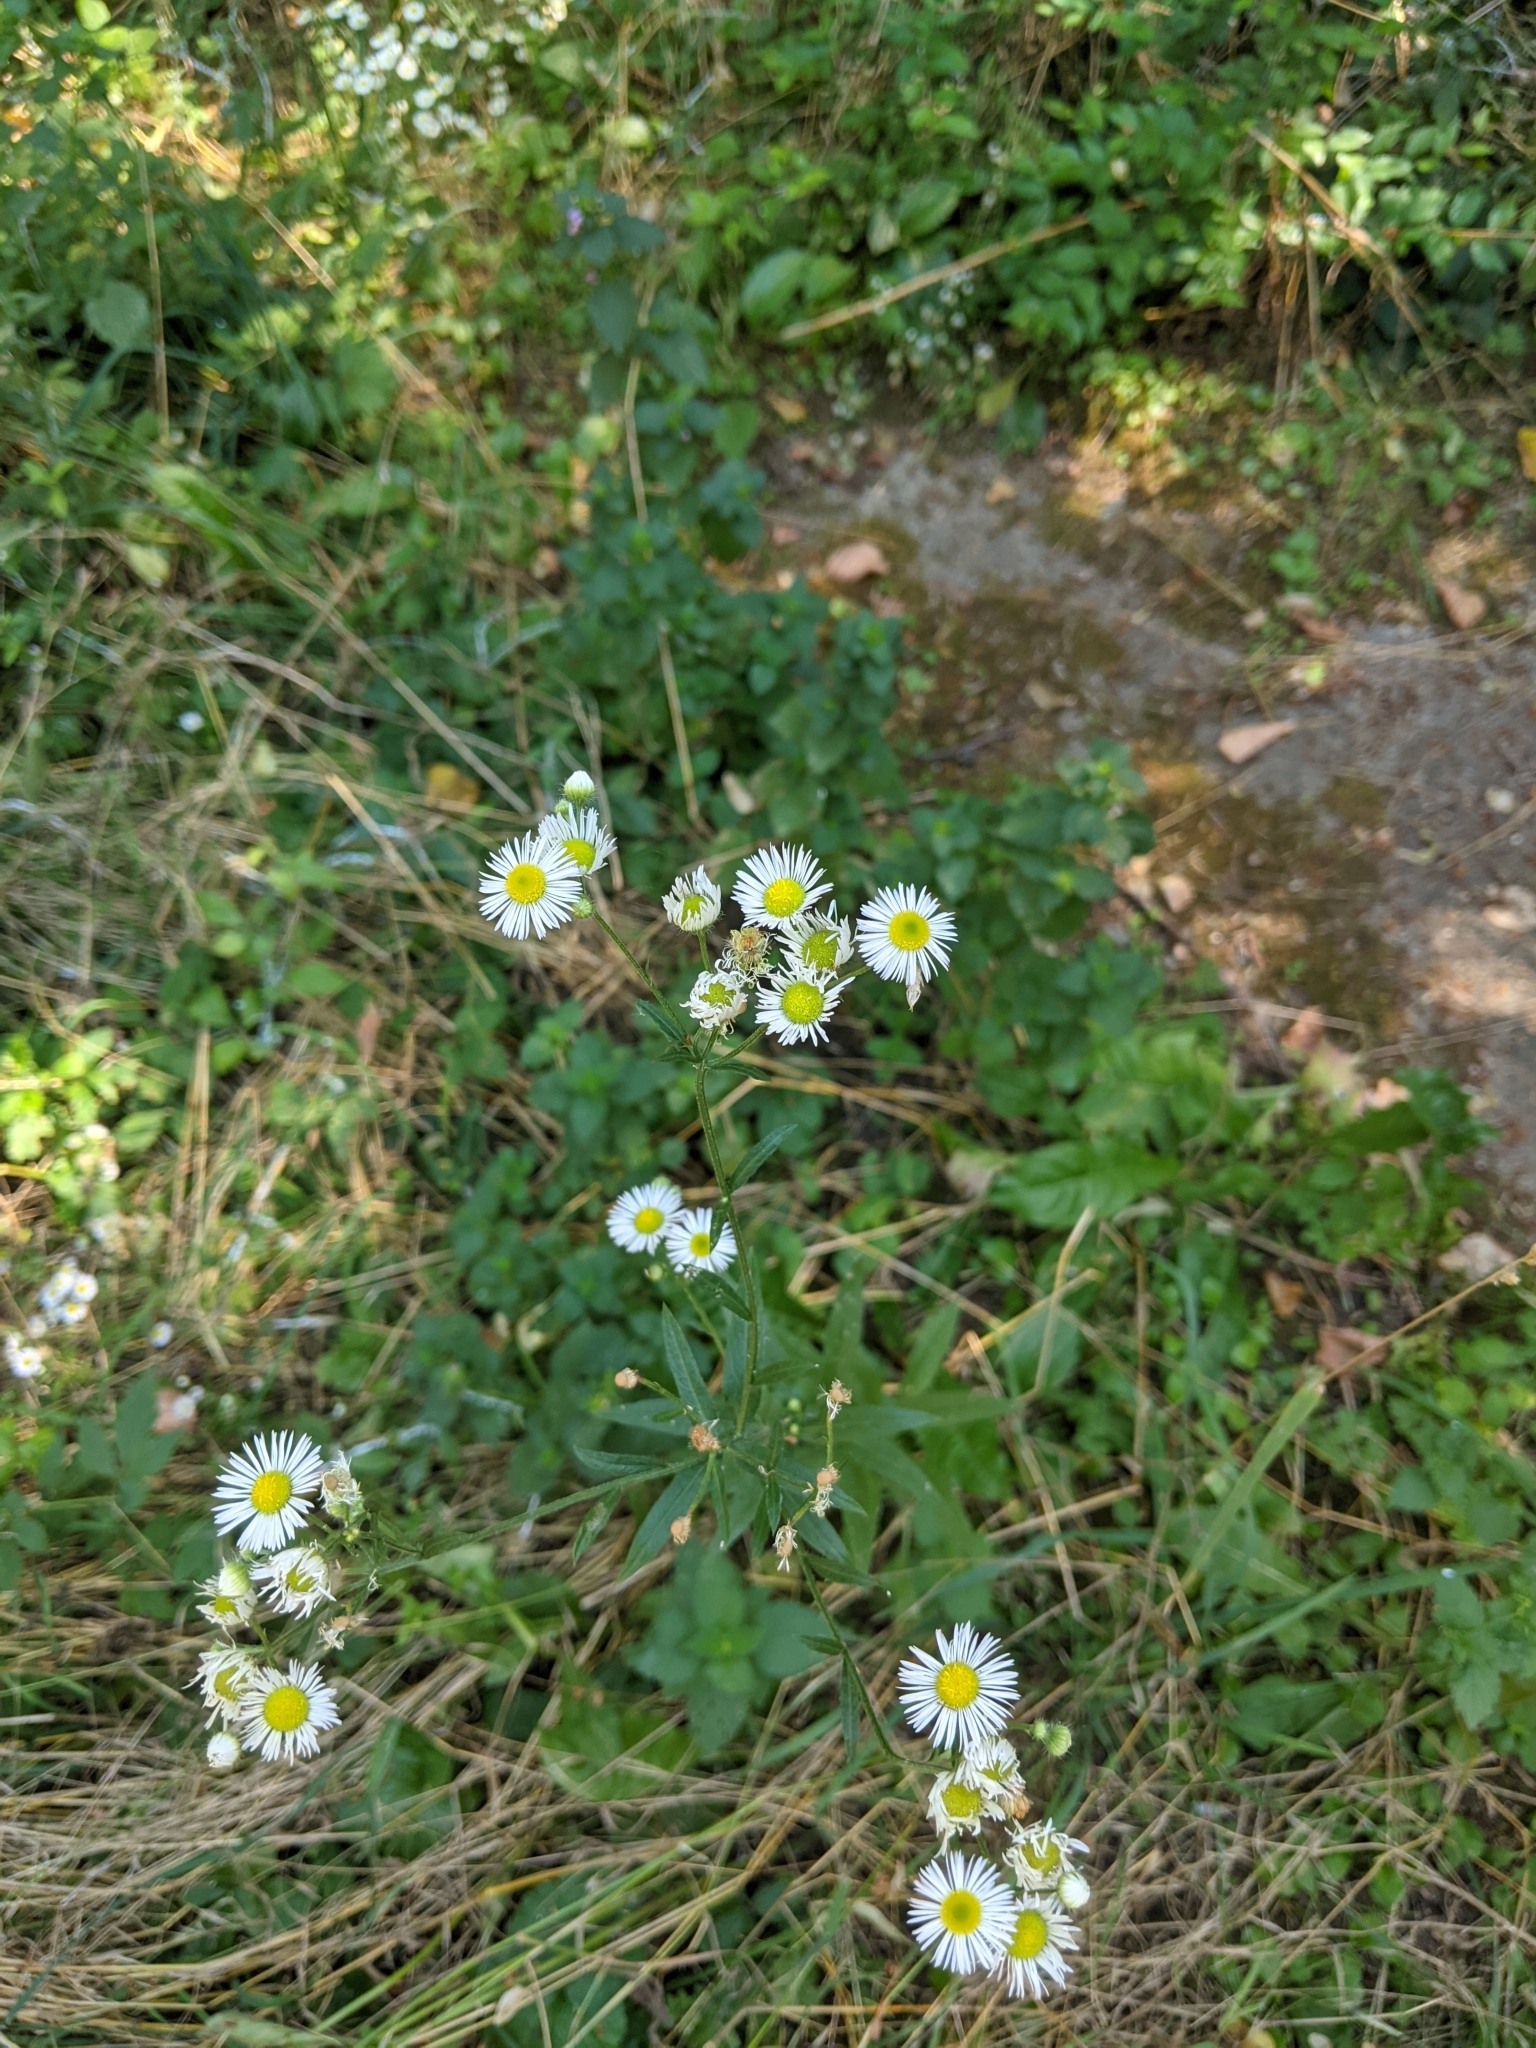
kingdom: Plantae
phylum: Tracheophyta
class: Magnoliopsida
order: Asterales
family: Asteraceae
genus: Erigeron
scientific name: Erigeron annuus
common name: Tall fleabane
